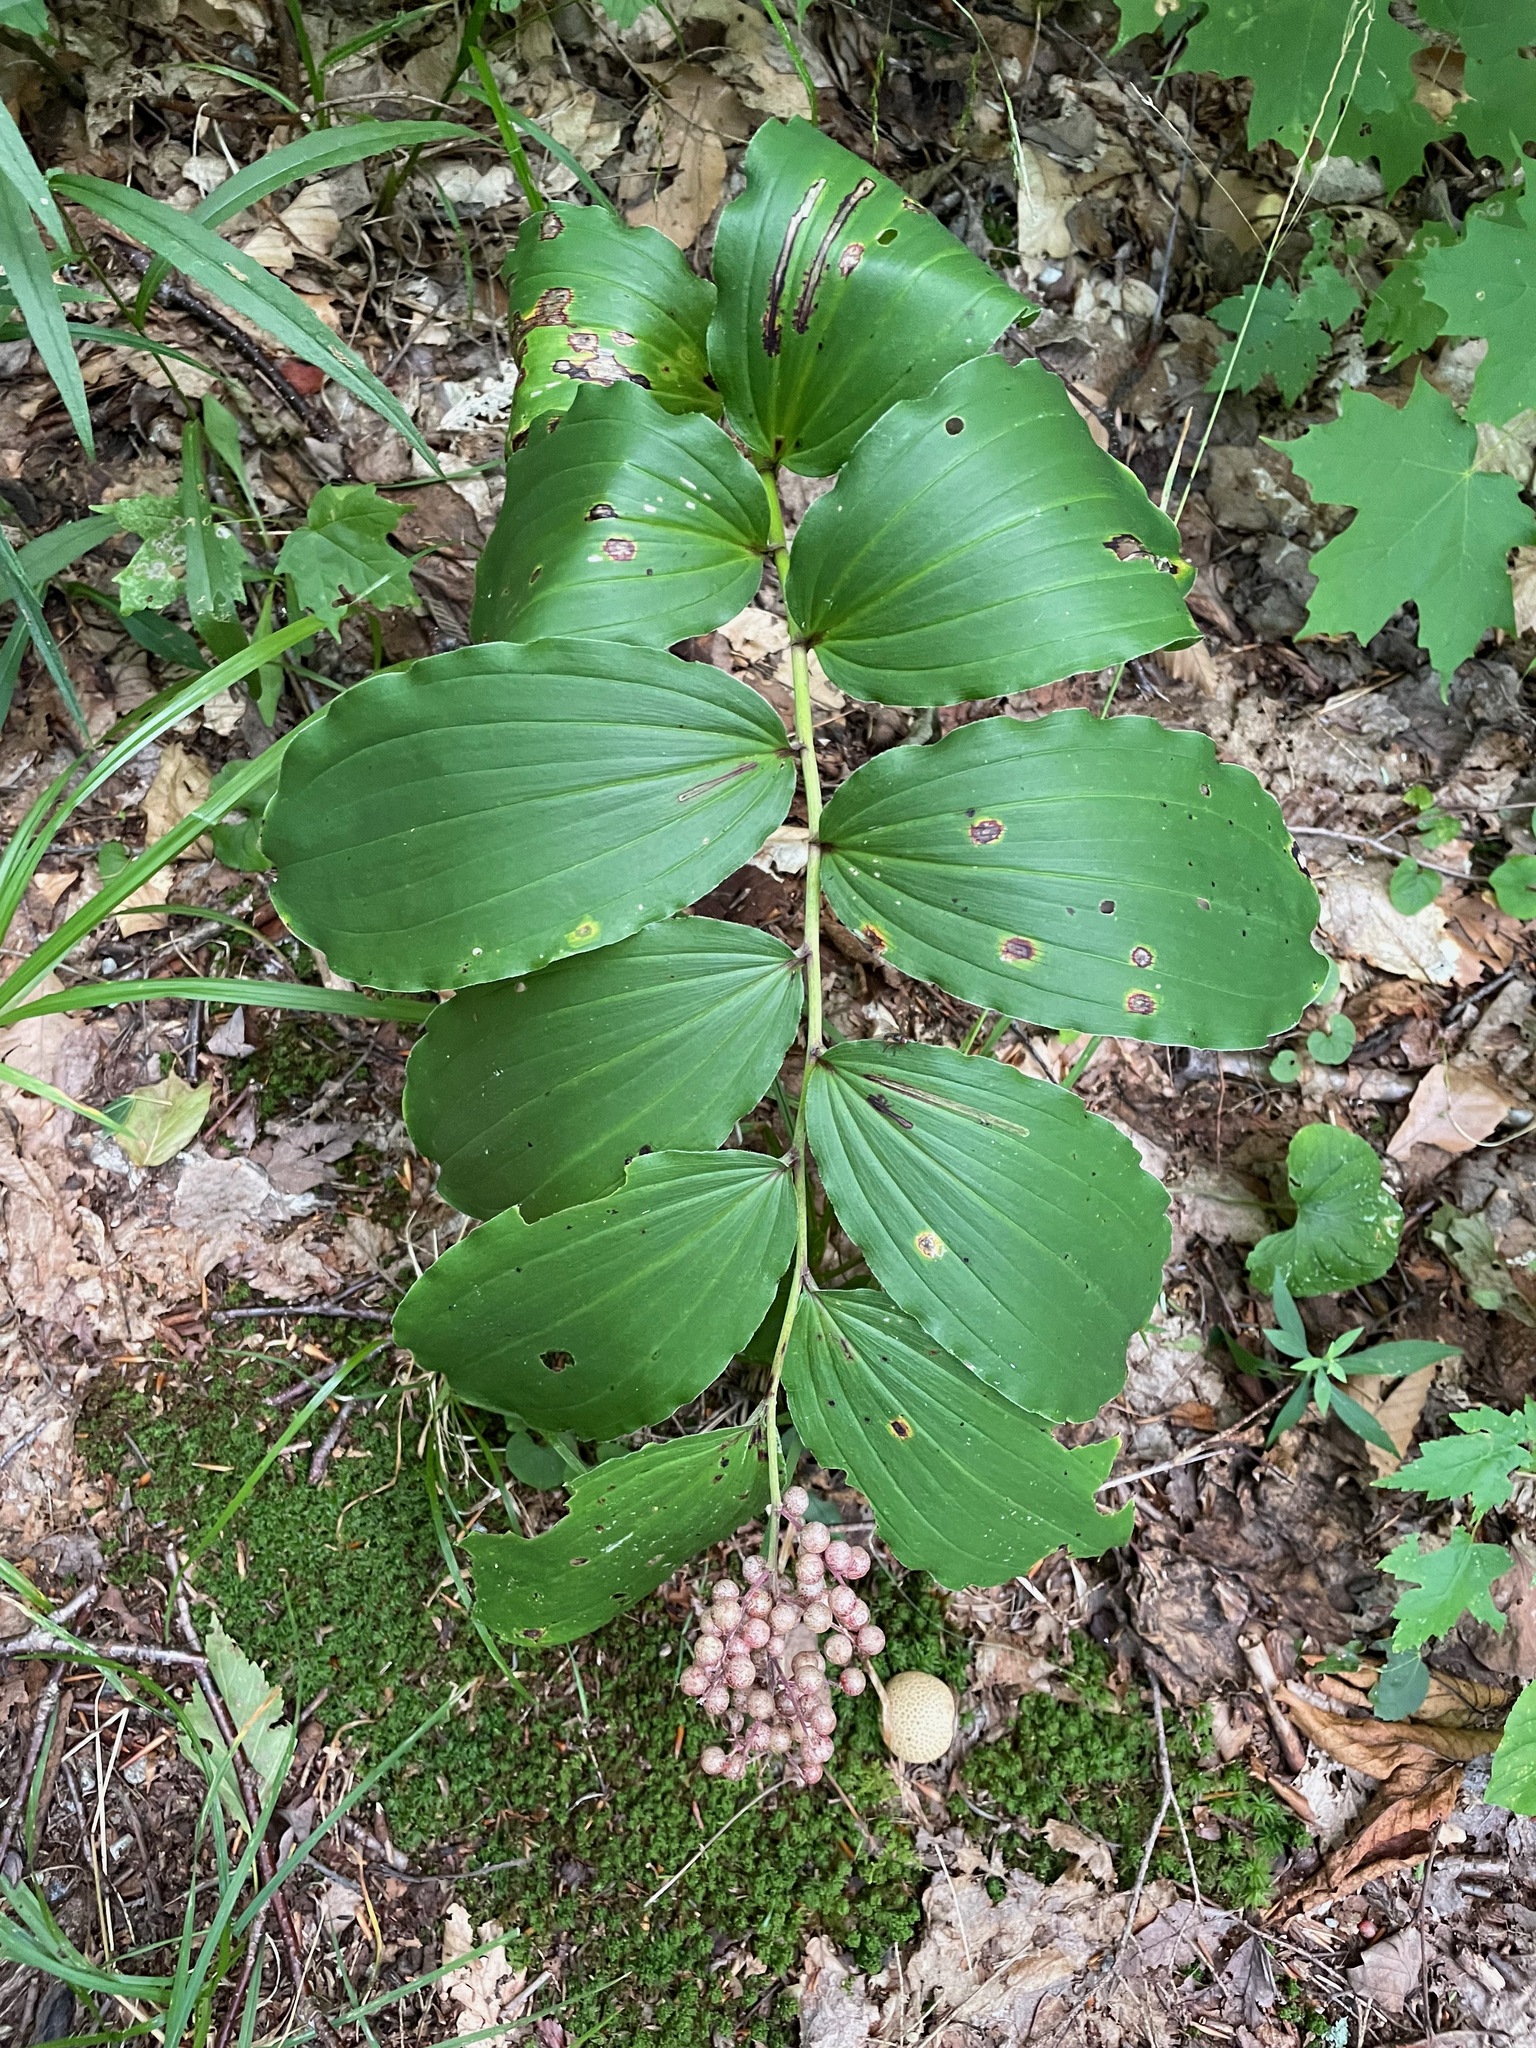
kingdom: Plantae
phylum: Tracheophyta
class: Liliopsida
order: Asparagales
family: Asparagaceae
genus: Maianthemum
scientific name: Maianthemum racemosum
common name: False spikenard
